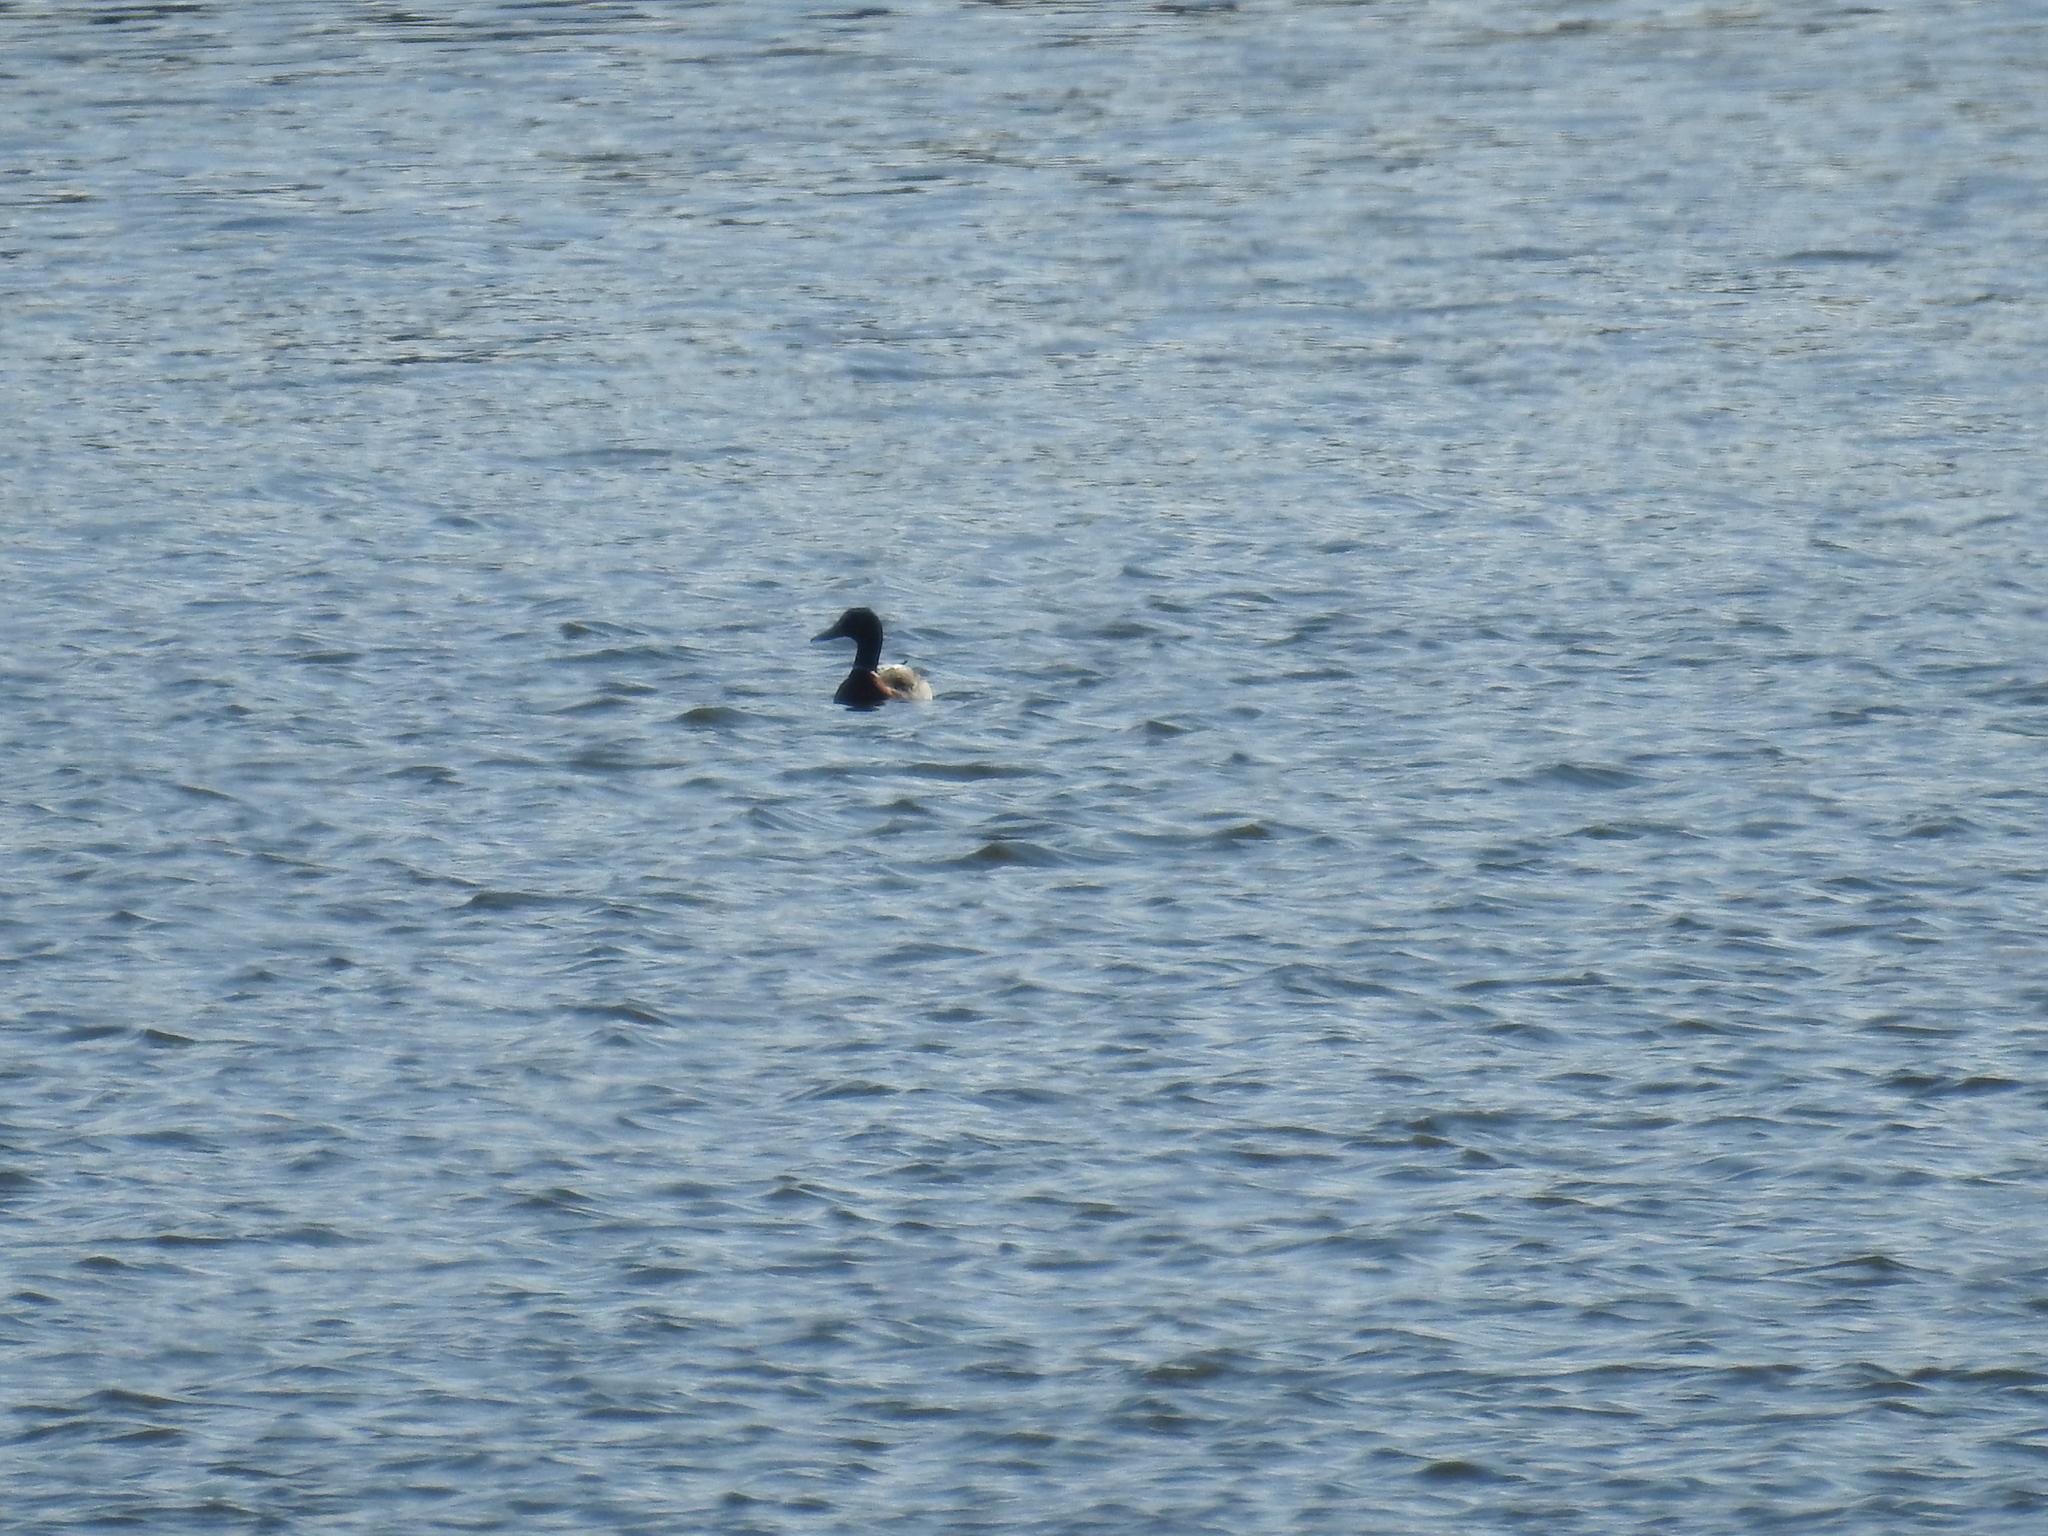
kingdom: Animalia
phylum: Chordata
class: Aves
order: Anseriformes
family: Anatidae
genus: Anas
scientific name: Anas platyrhynchos
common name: Mallard
